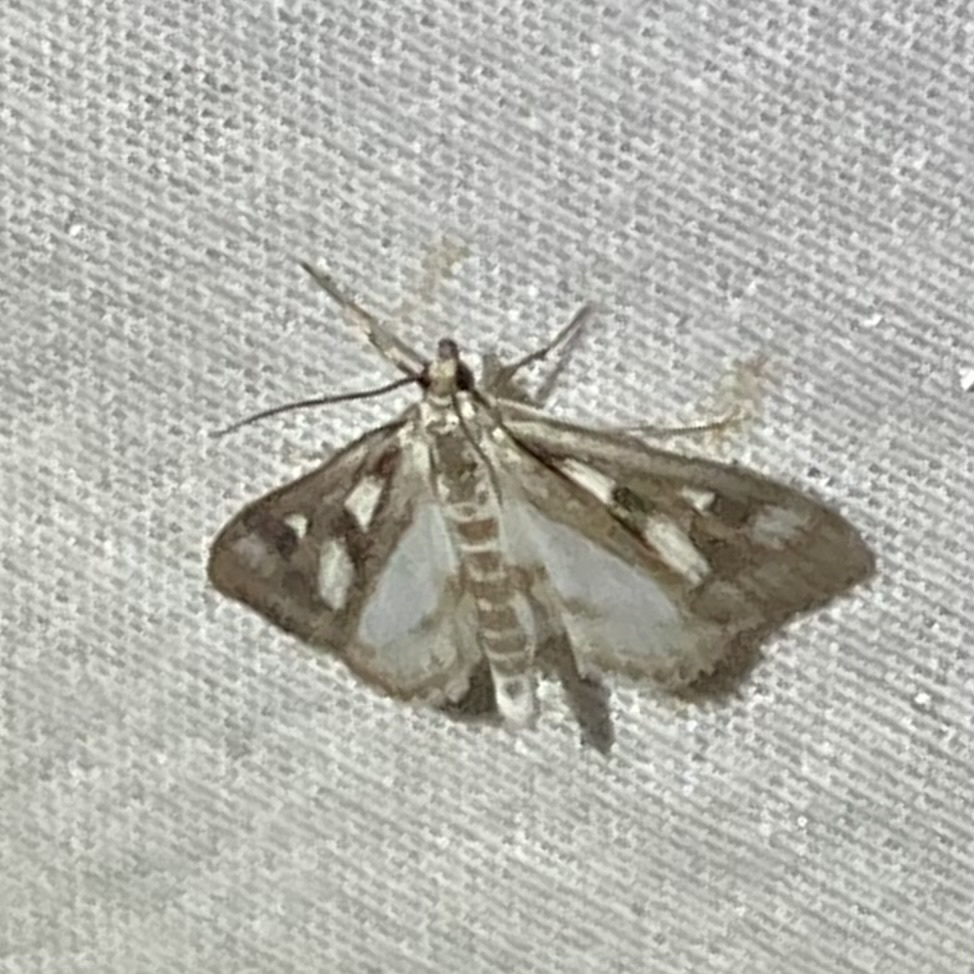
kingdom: Animalia
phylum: Arthropoda
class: Insecta
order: Lepidoptera
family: Crambidae
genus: Parapoynx
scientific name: Parapoynx maculalis
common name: Polymorphic pondweed moth
